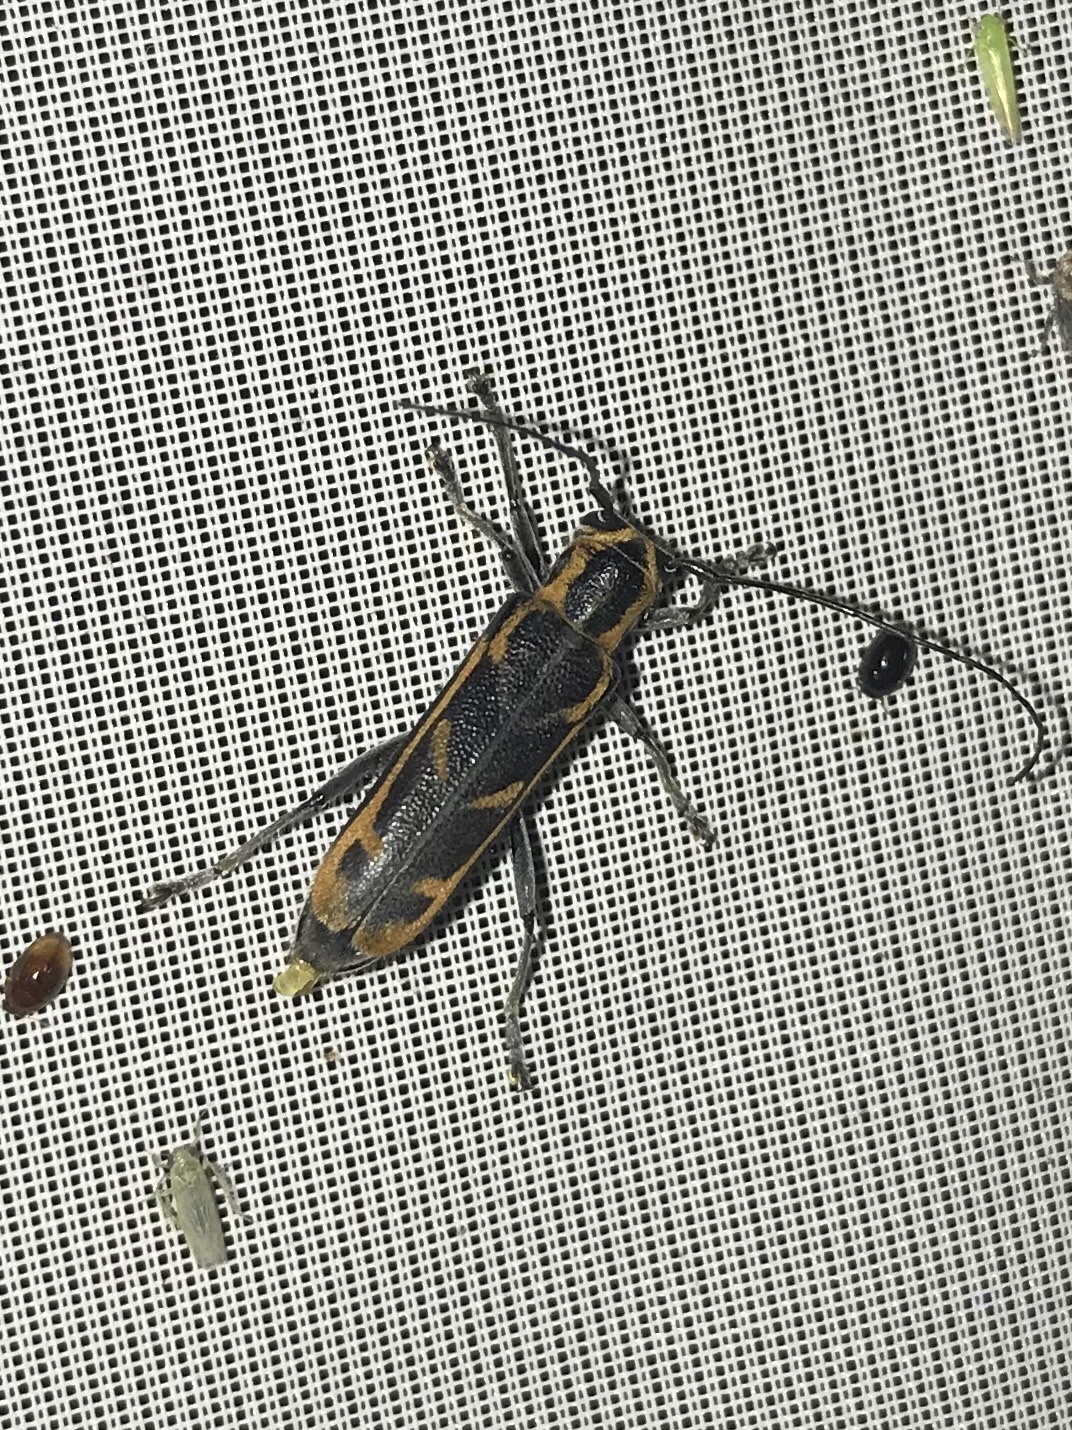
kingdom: Animalia
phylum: Arthropoda
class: Insecta
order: Coleoptera
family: Cerambycidae
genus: Saperda
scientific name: Saperda imitans
